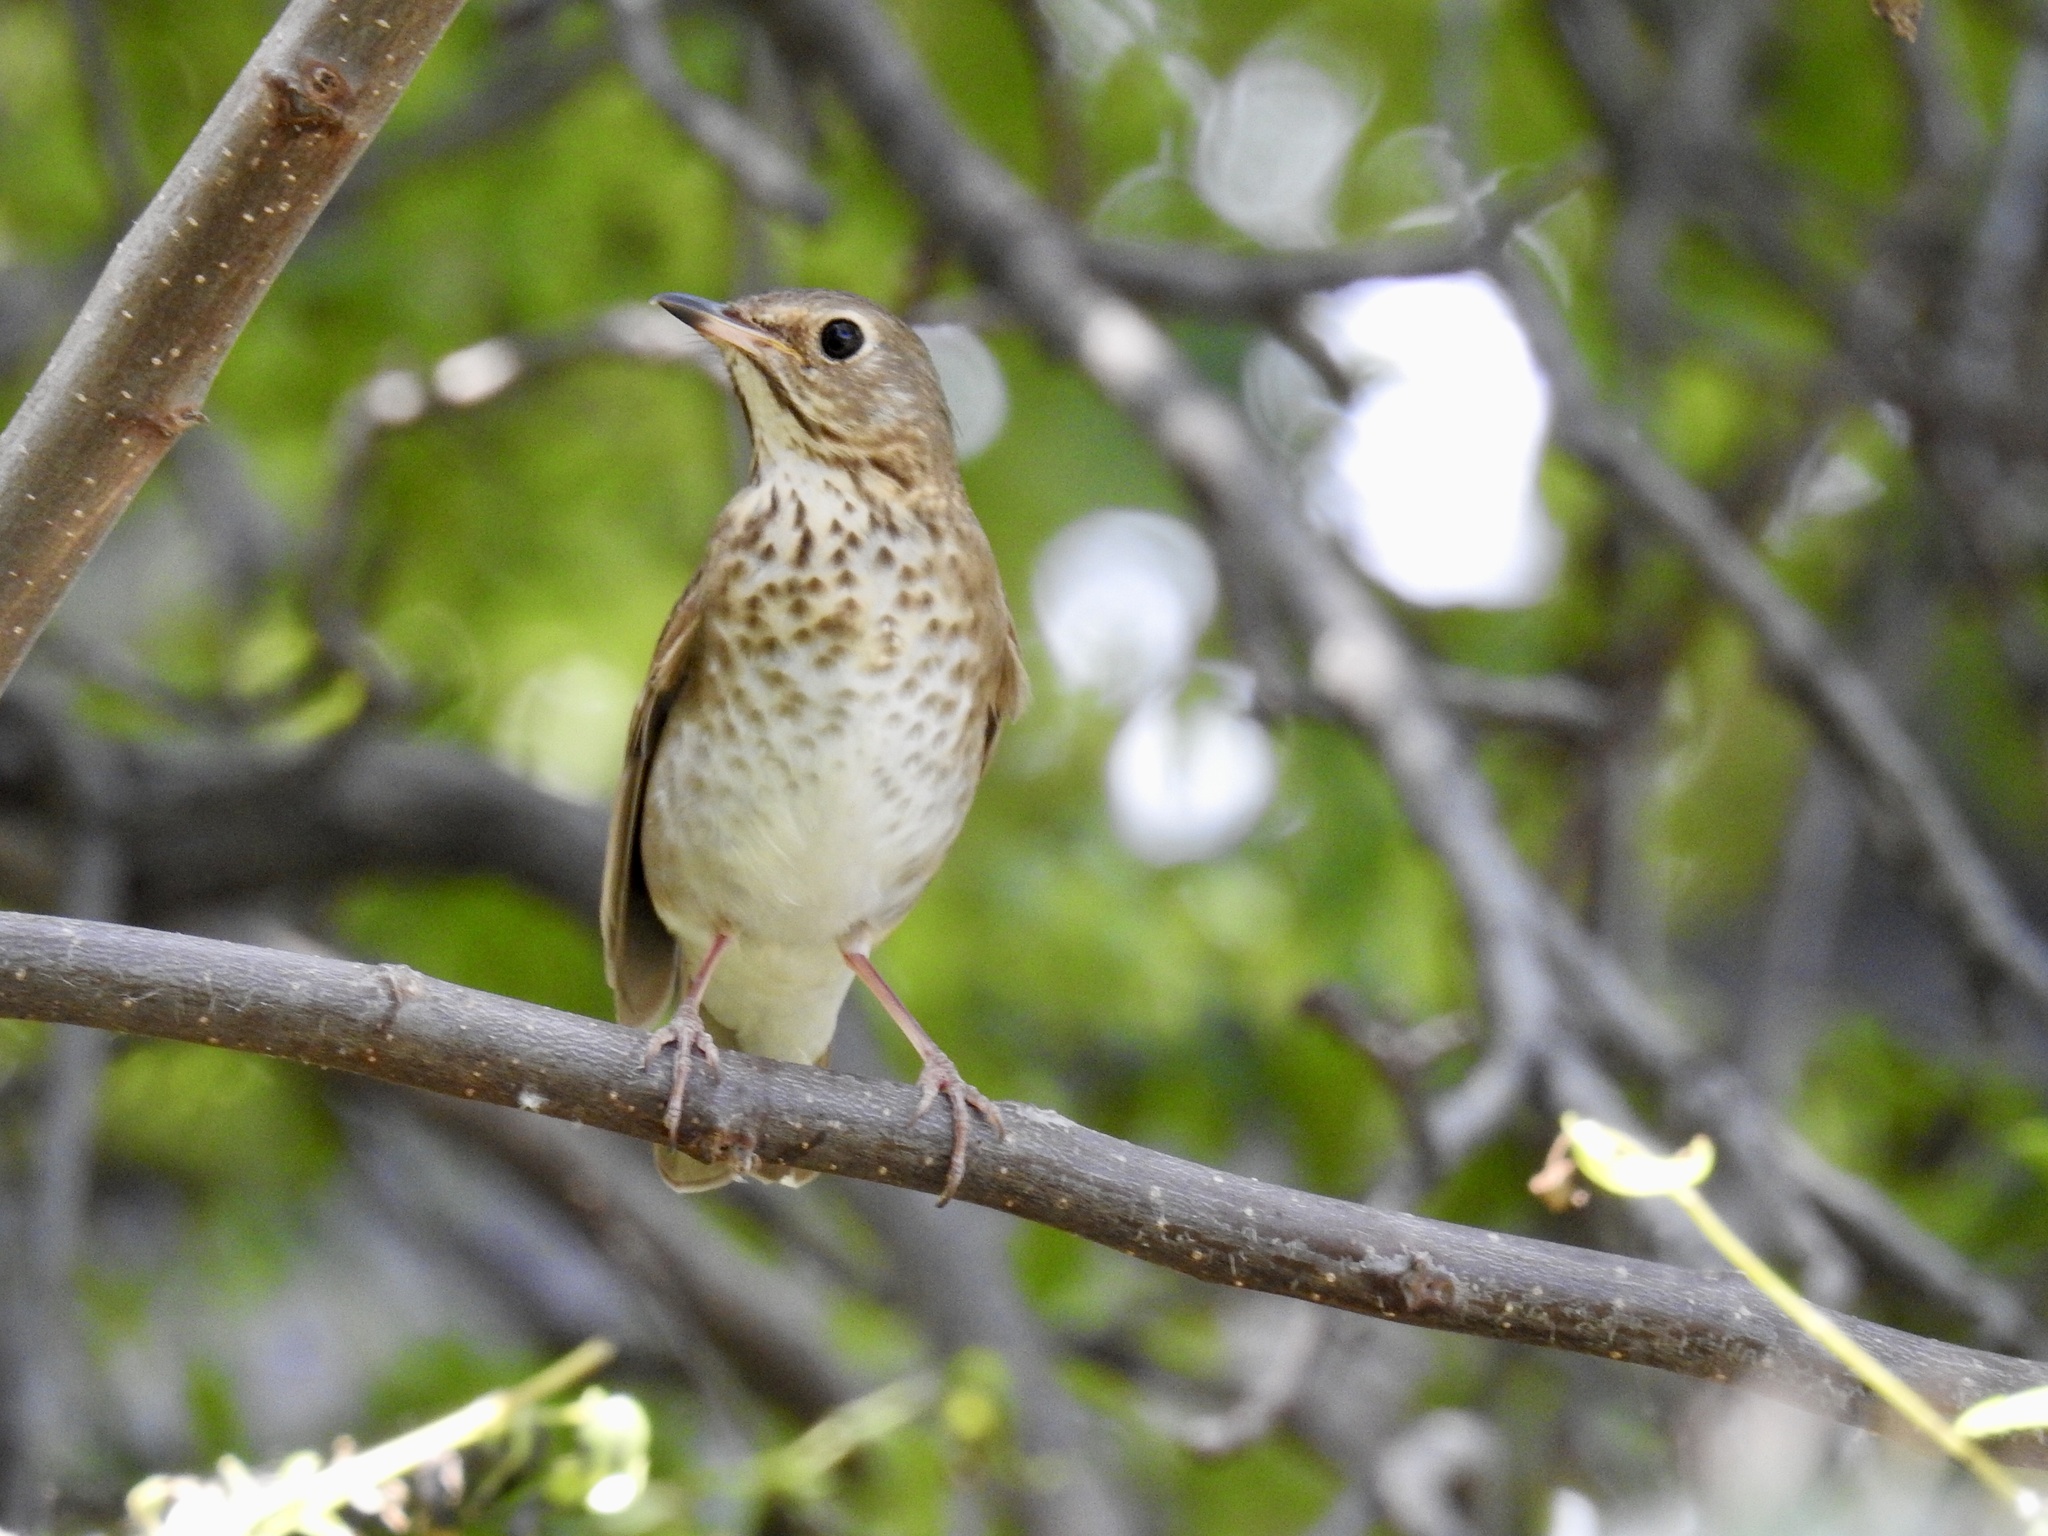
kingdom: Animalia
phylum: Chordata
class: Aves
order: Passeriformes
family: Turdidae
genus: Catharus
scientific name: Catharus ustulatus
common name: Swainson's thrush
